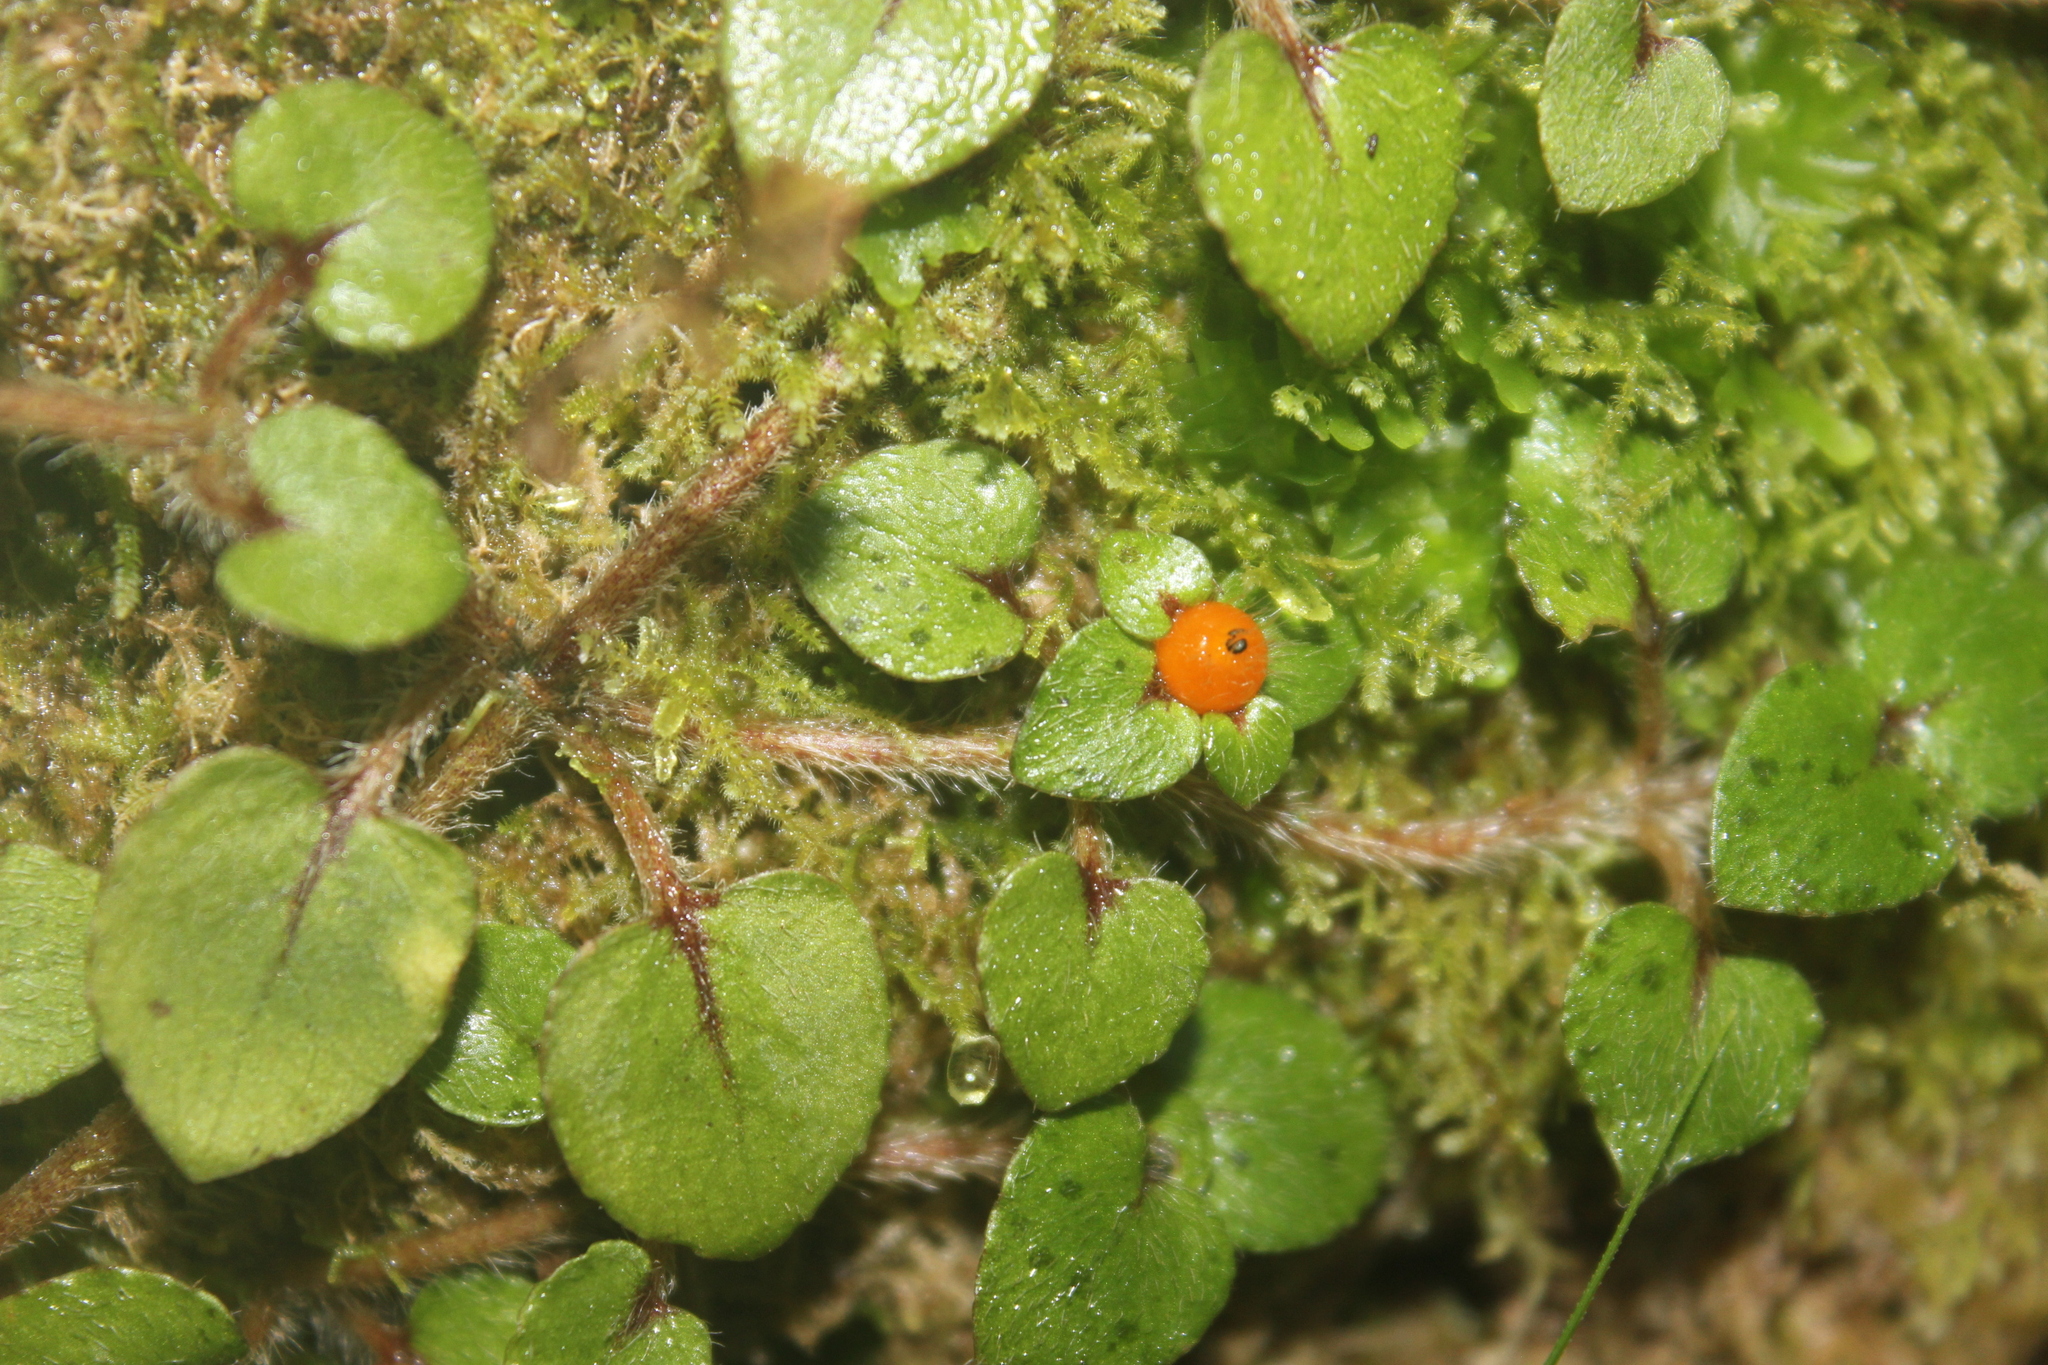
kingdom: Plantae
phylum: Tracheophyta
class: Magnoliopsida
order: Gentianales
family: Rubiaceae
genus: Nertera
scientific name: Nertera villosa
